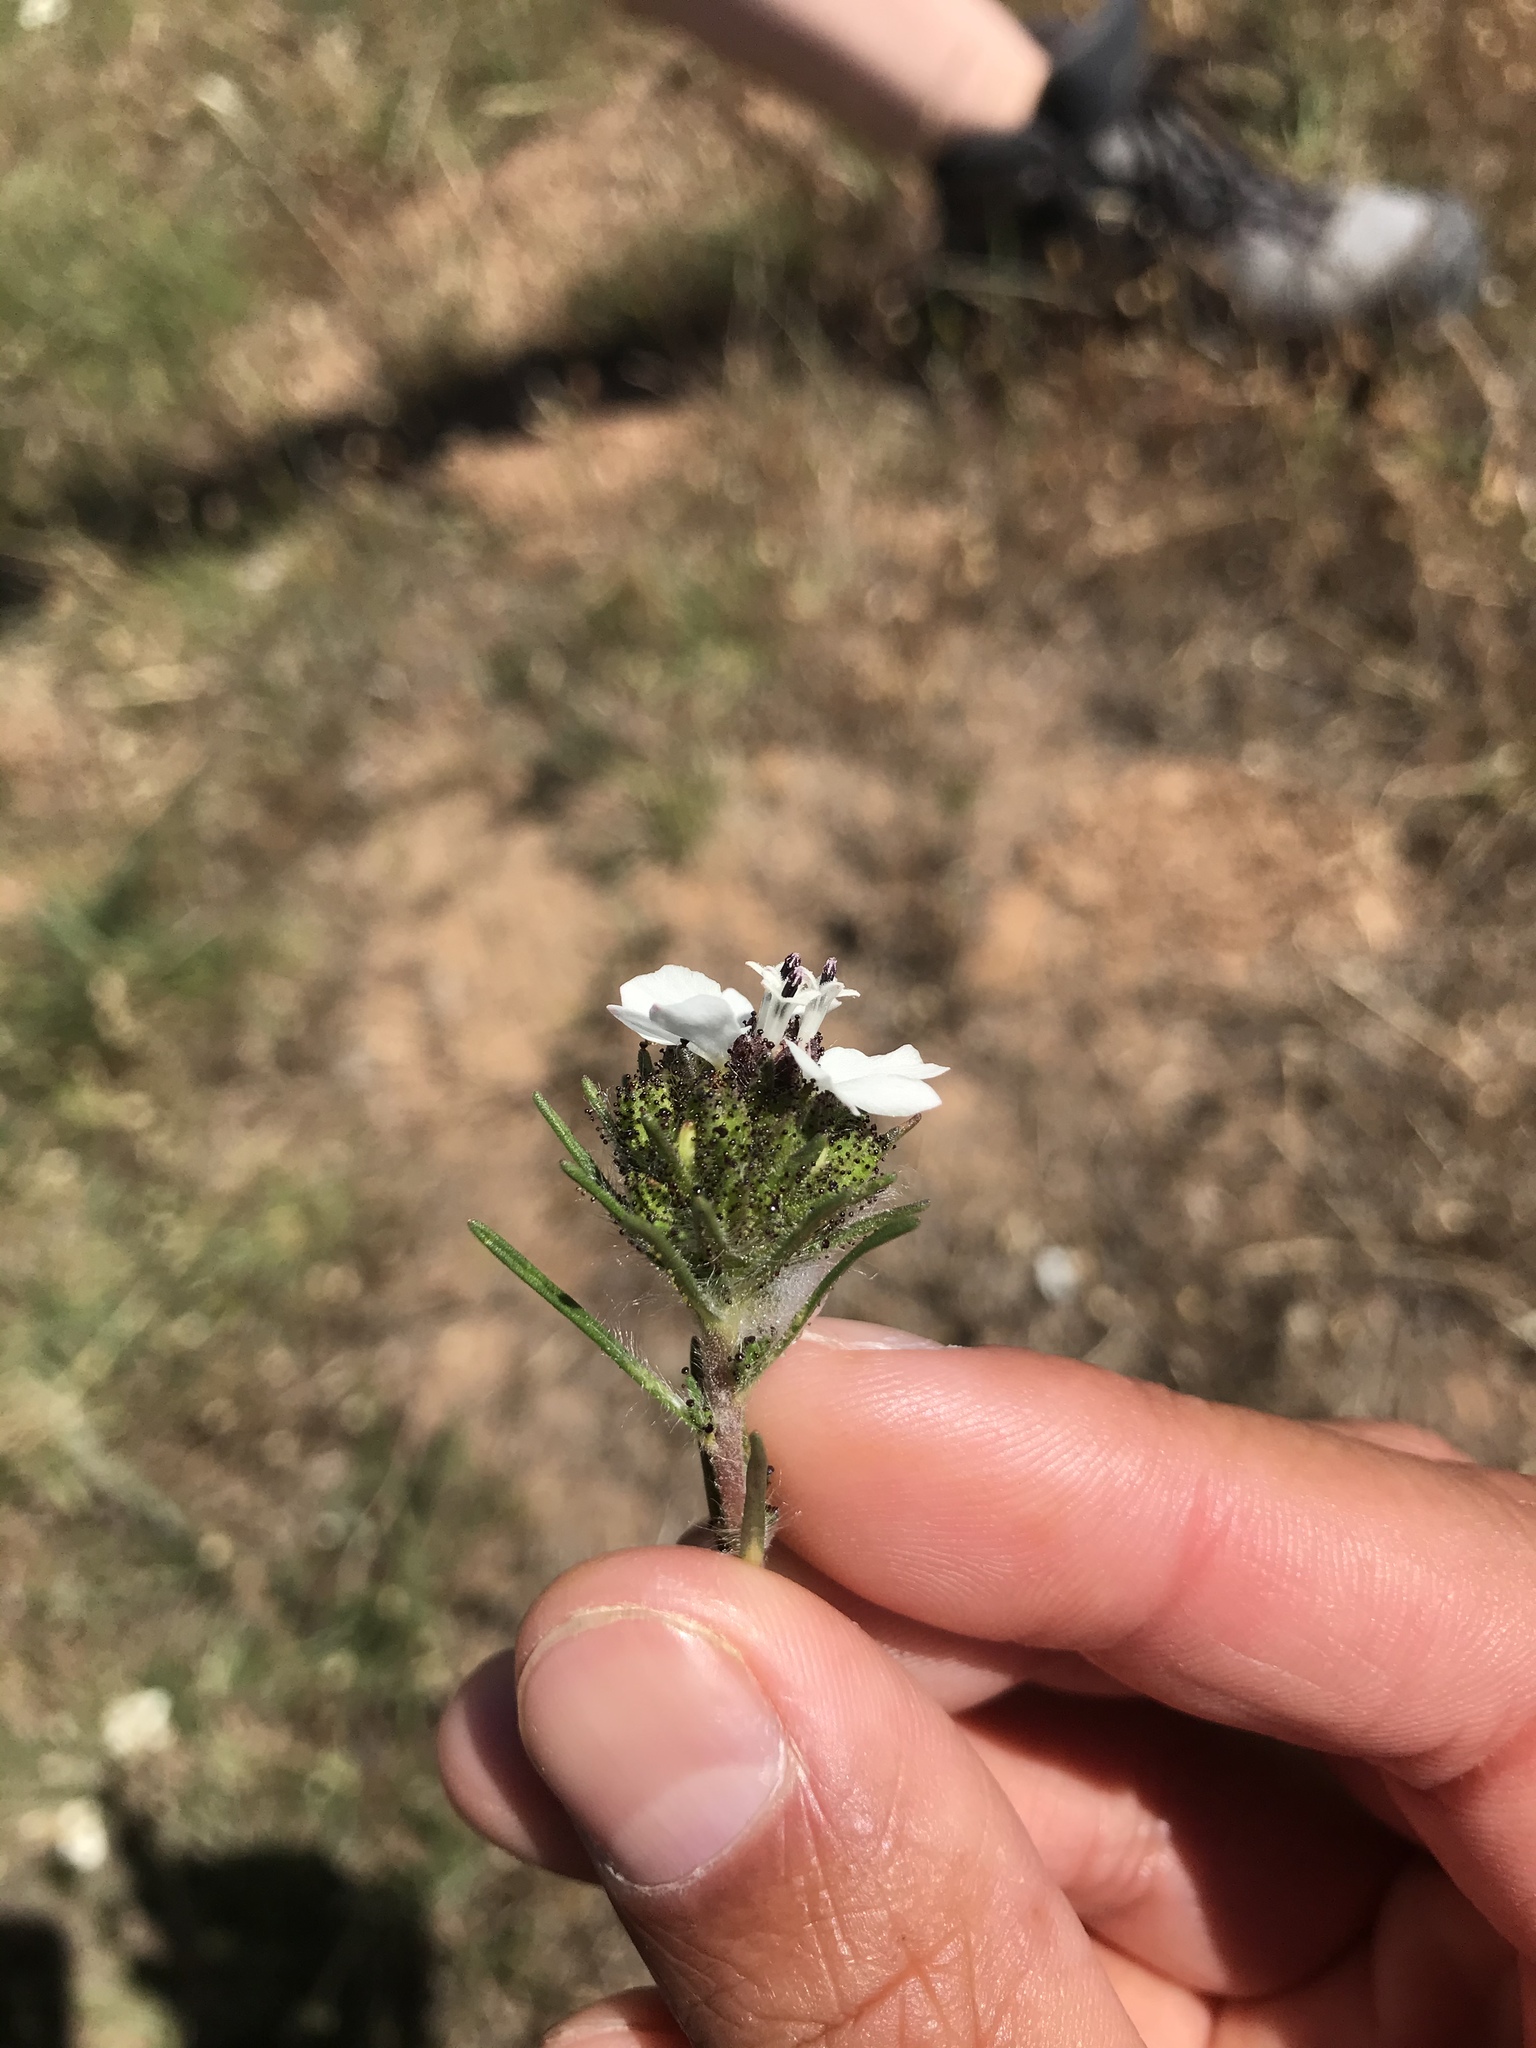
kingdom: Plantae
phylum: Tracheophyta
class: Magnoliopsida
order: Asterales
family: Asteraceae
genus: Calycadenia
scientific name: Calycadenia multiglandulosa
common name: Sticky calycadenia
